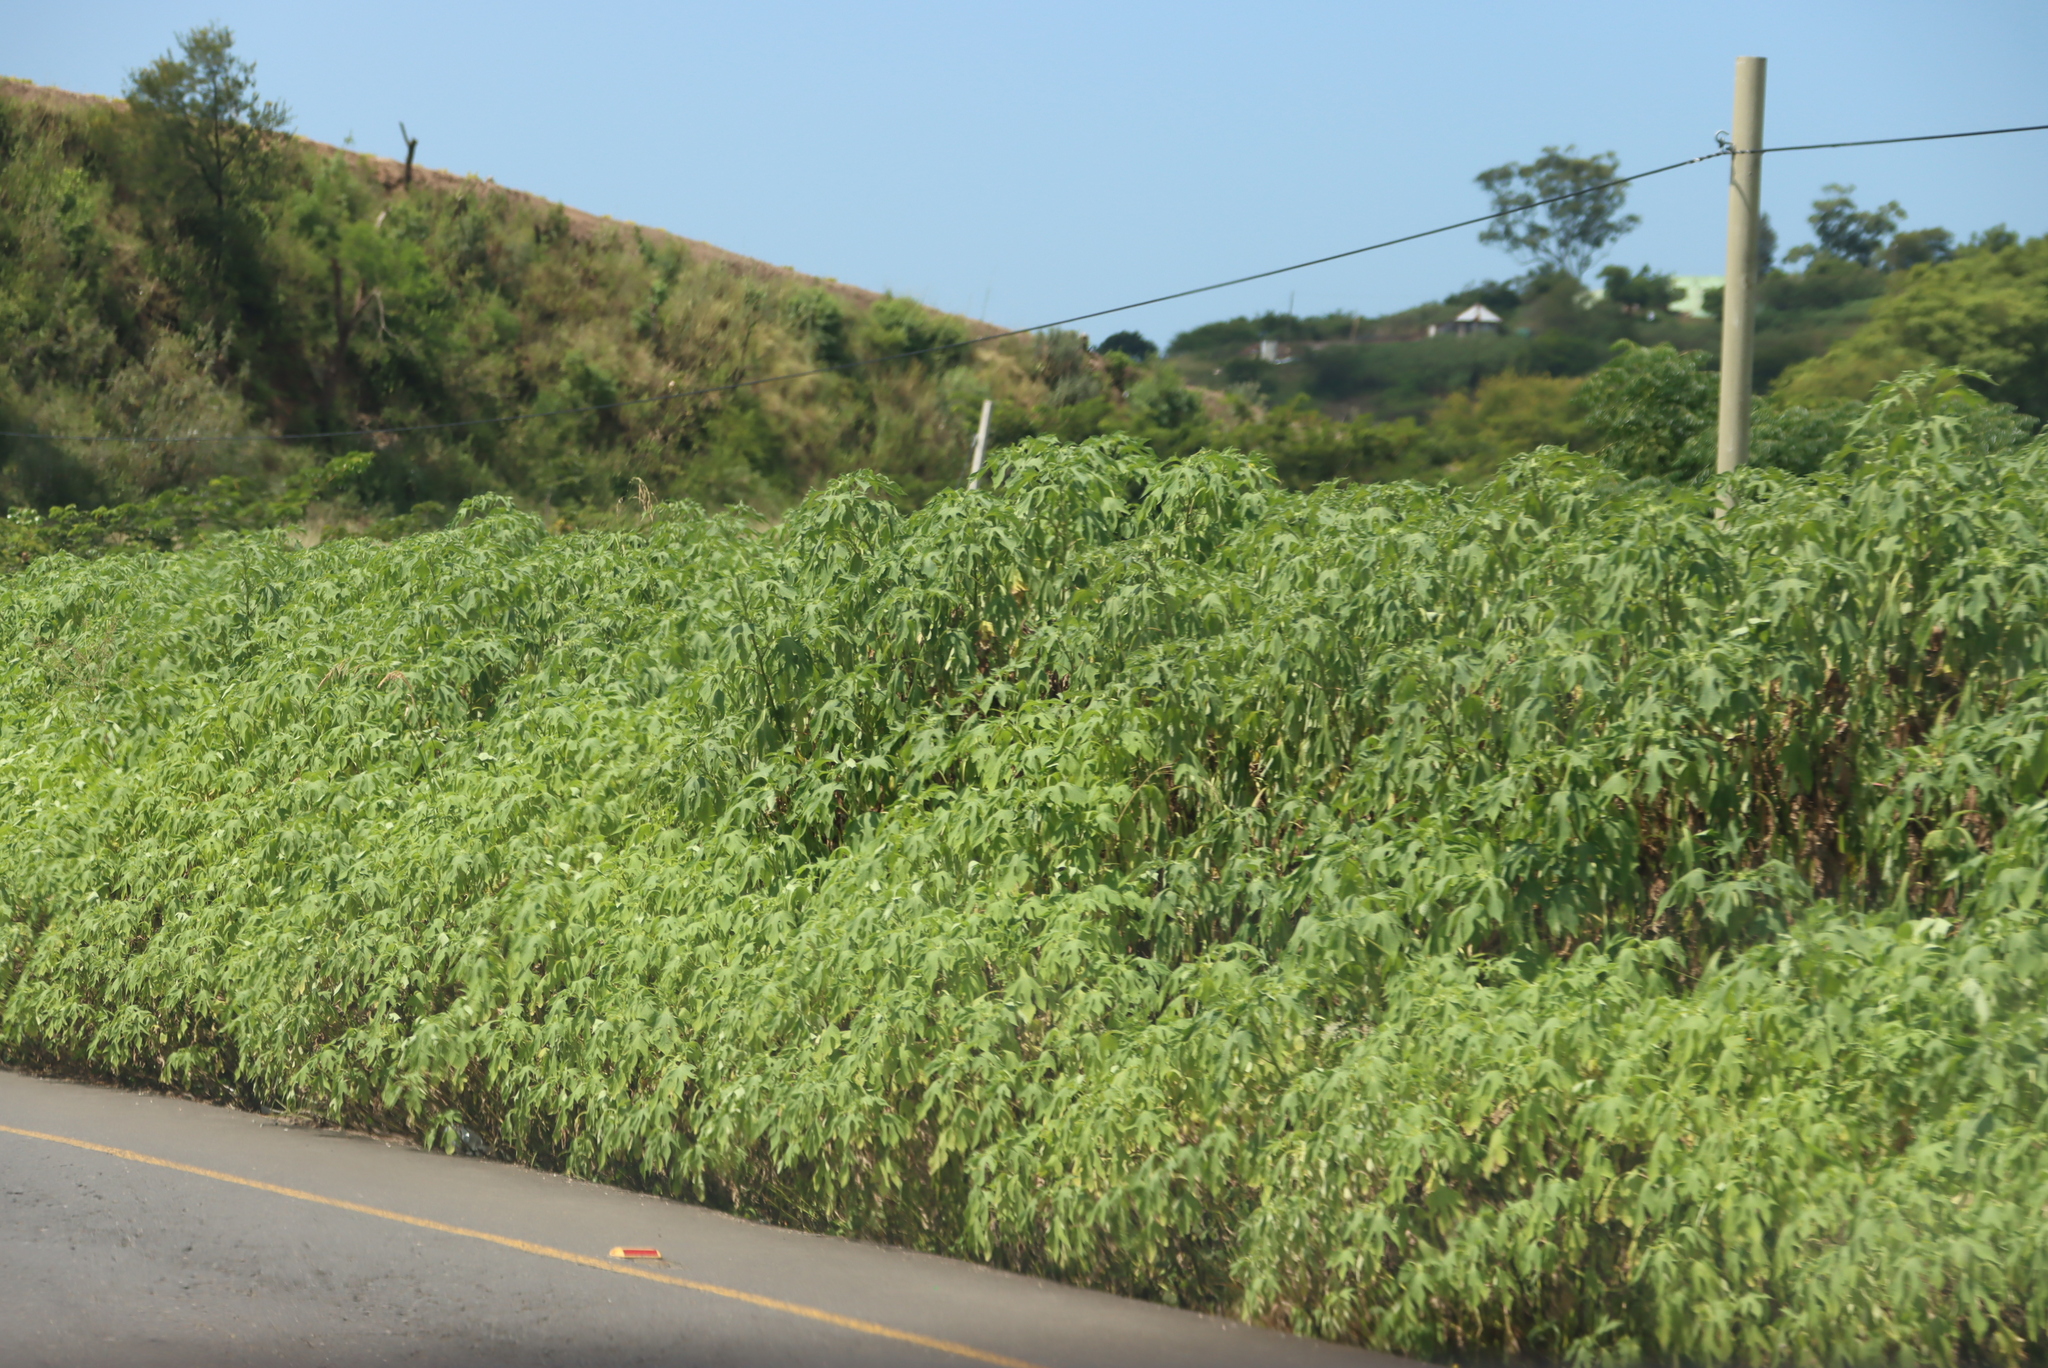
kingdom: Plantae
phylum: Tracheophyta
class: Magnoliopsida
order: Asterales
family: Asteraceae
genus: Tithonia
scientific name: Tithonia diversifolia
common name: Tree marigold
